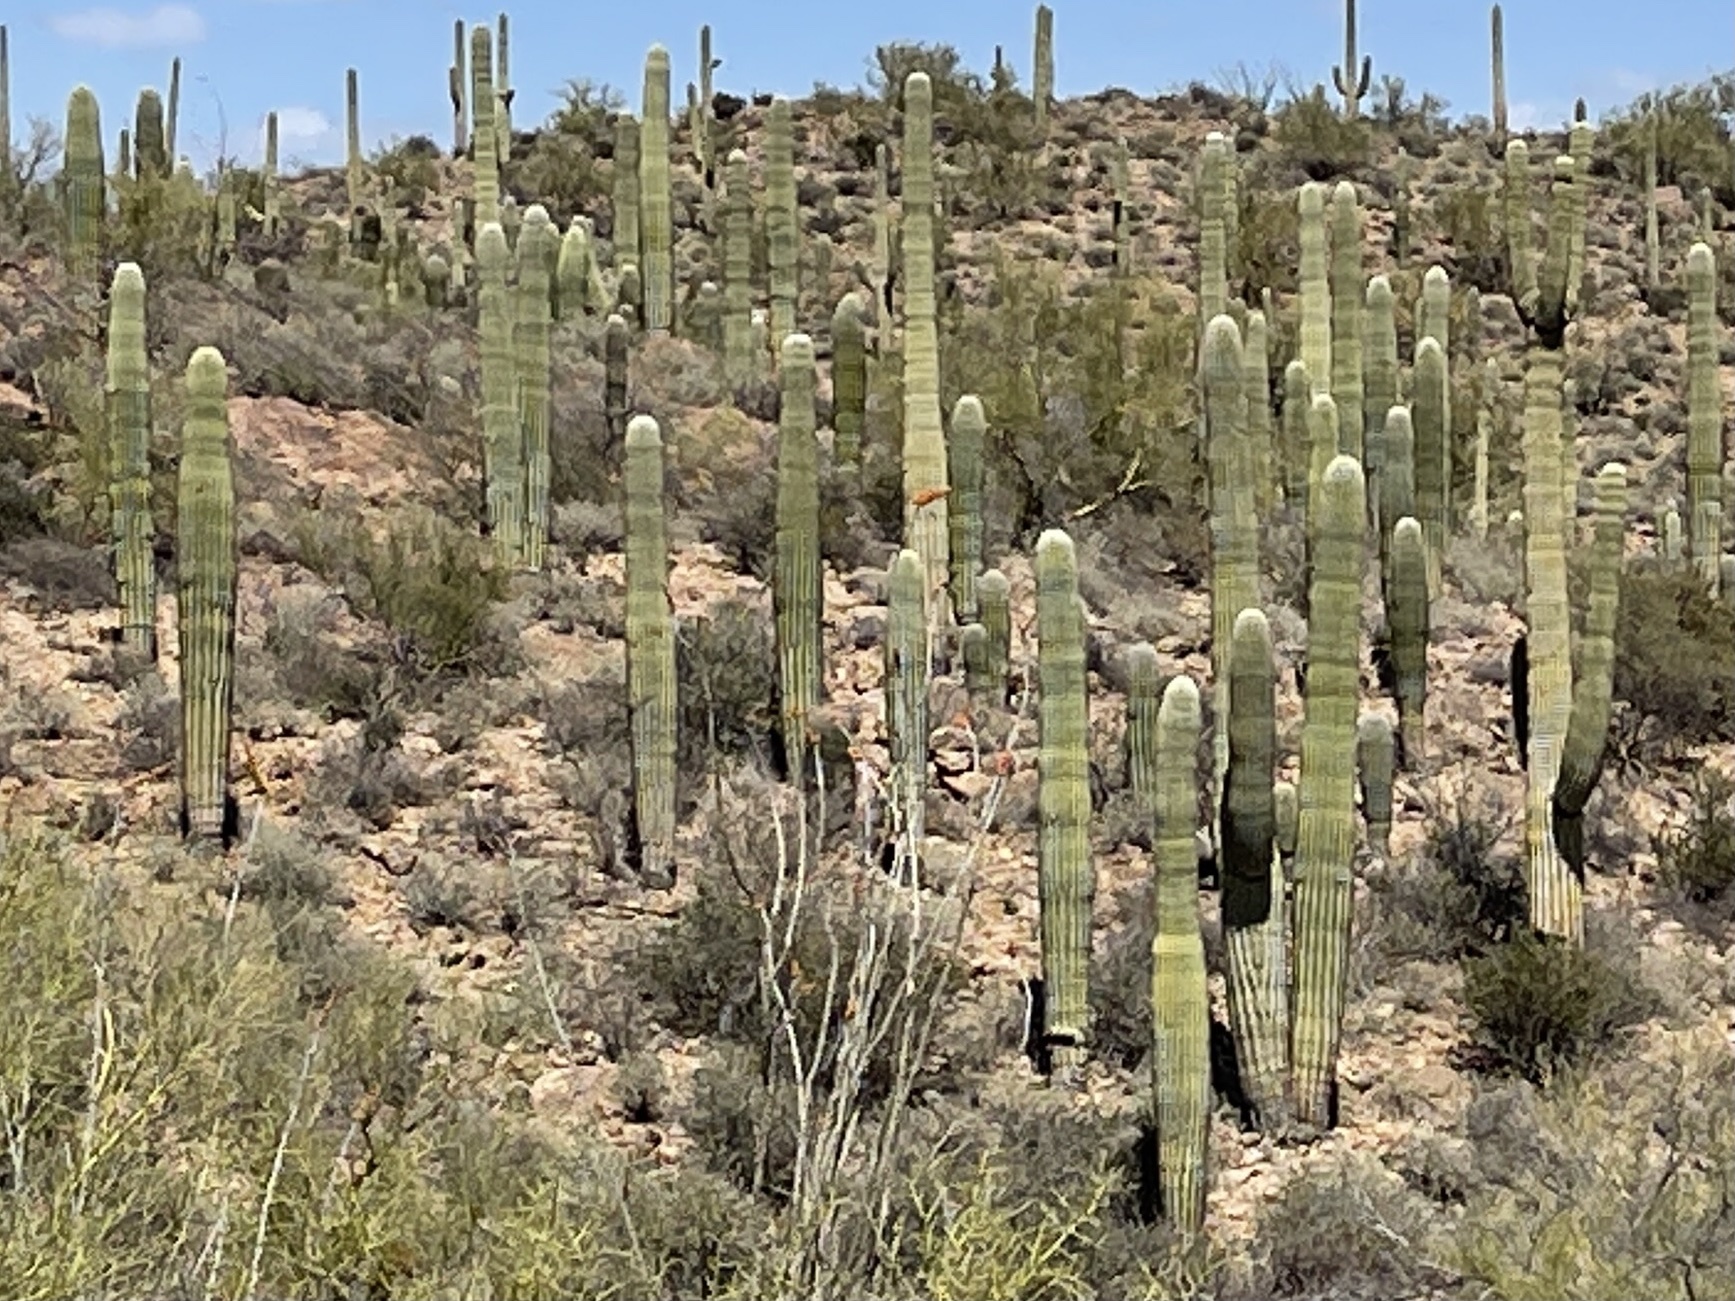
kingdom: Plantae
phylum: Tracheophyta
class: Magnoliopsida
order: Caryophyllales
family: Cactaceae
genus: Carnegiea
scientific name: Carnegiea gigantea
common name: Saguaro
